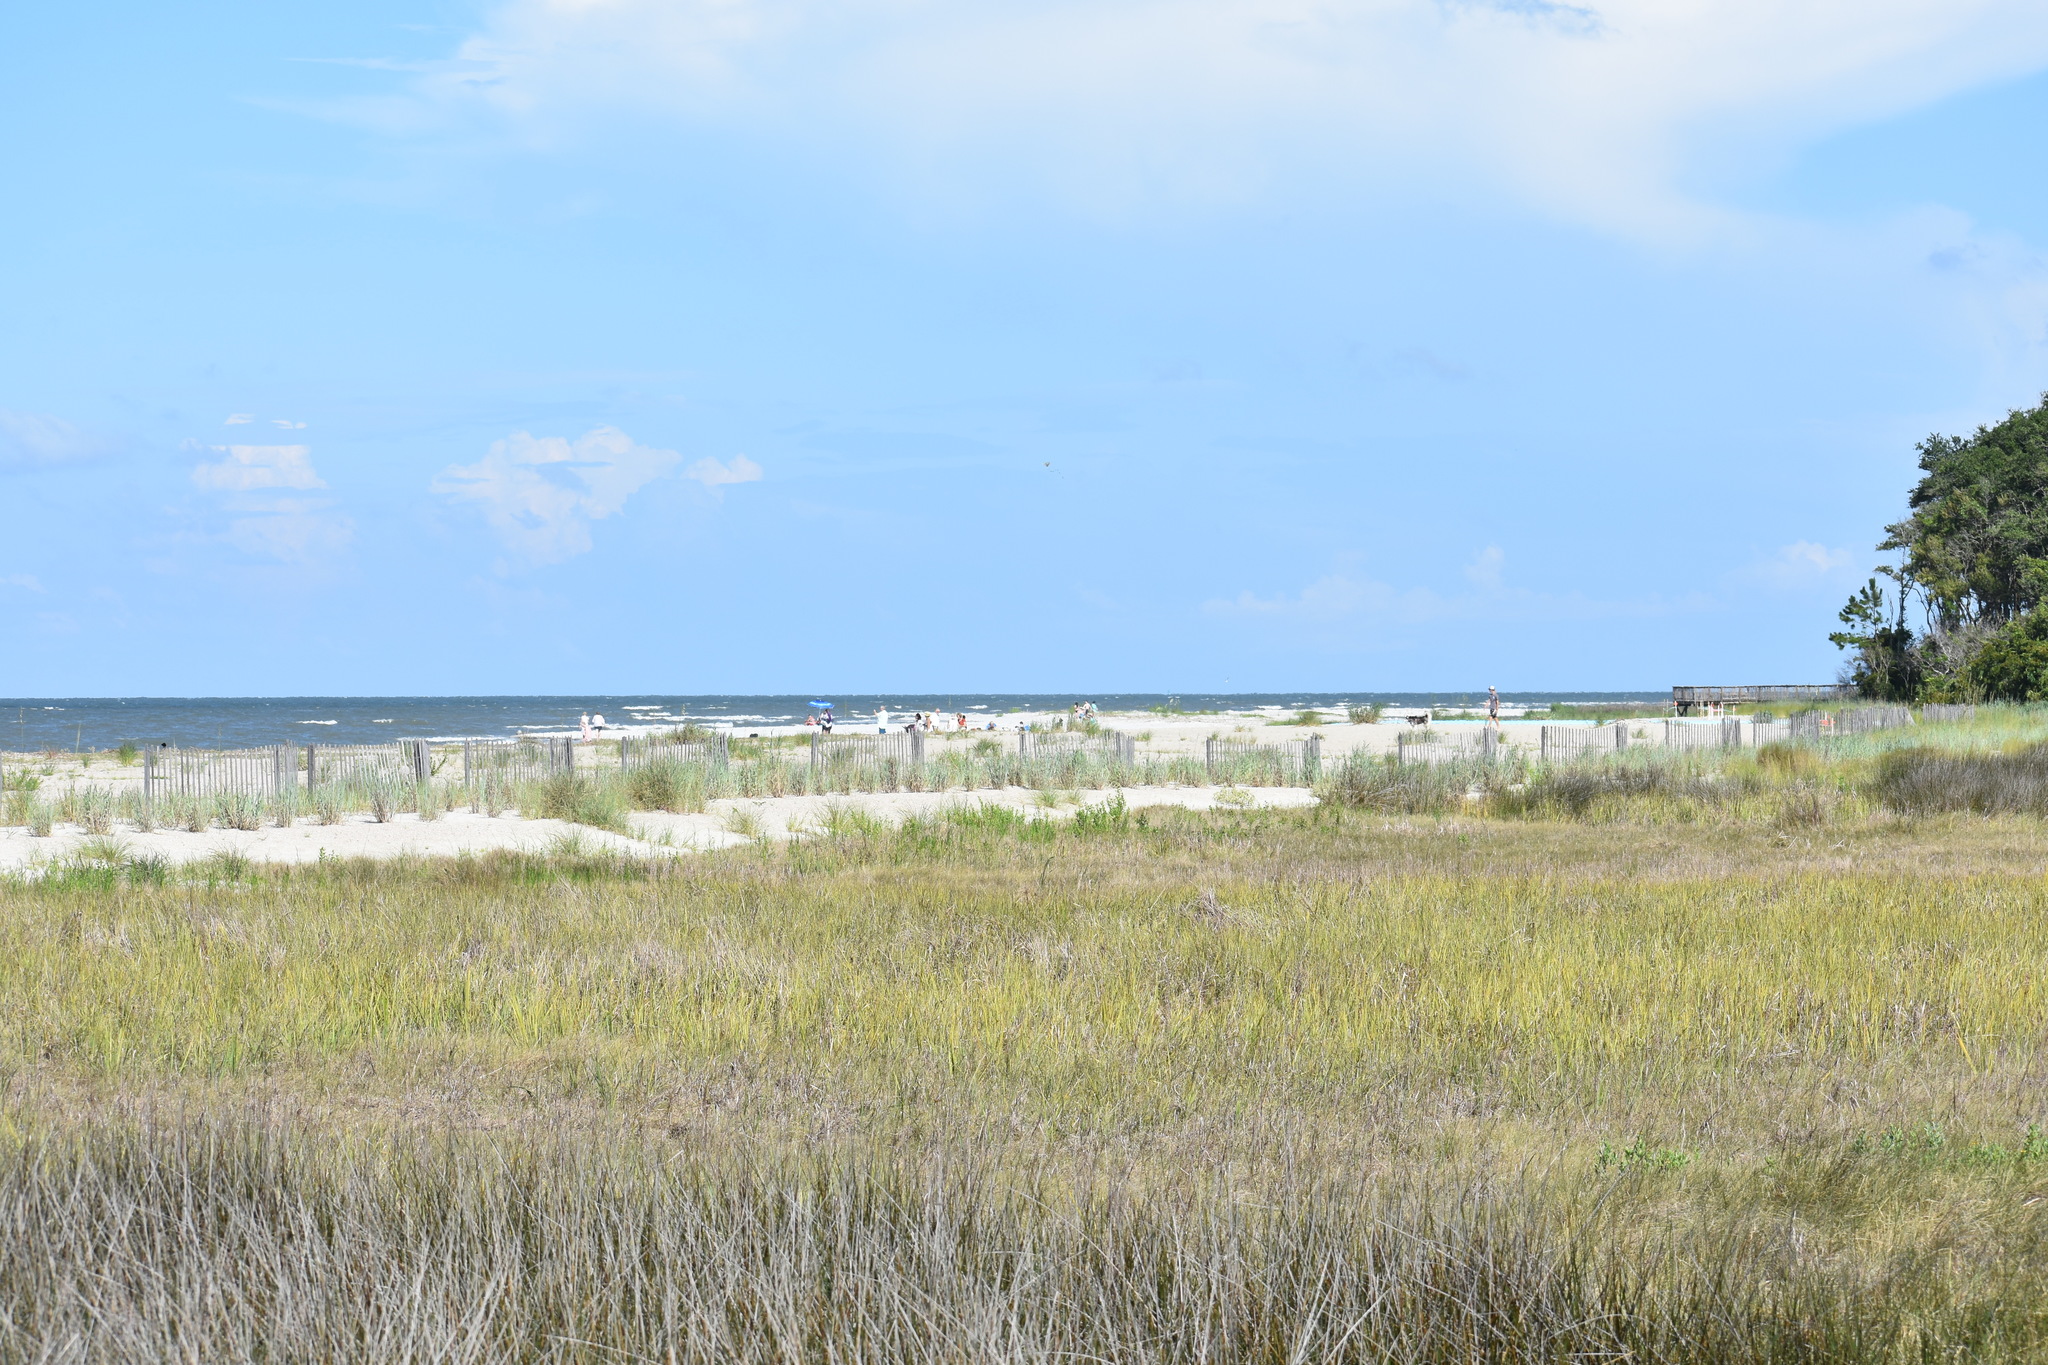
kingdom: Animalia
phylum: Chordata
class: Testudines
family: Emydidae
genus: Trachemys
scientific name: Trachemys scripta
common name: Slider
